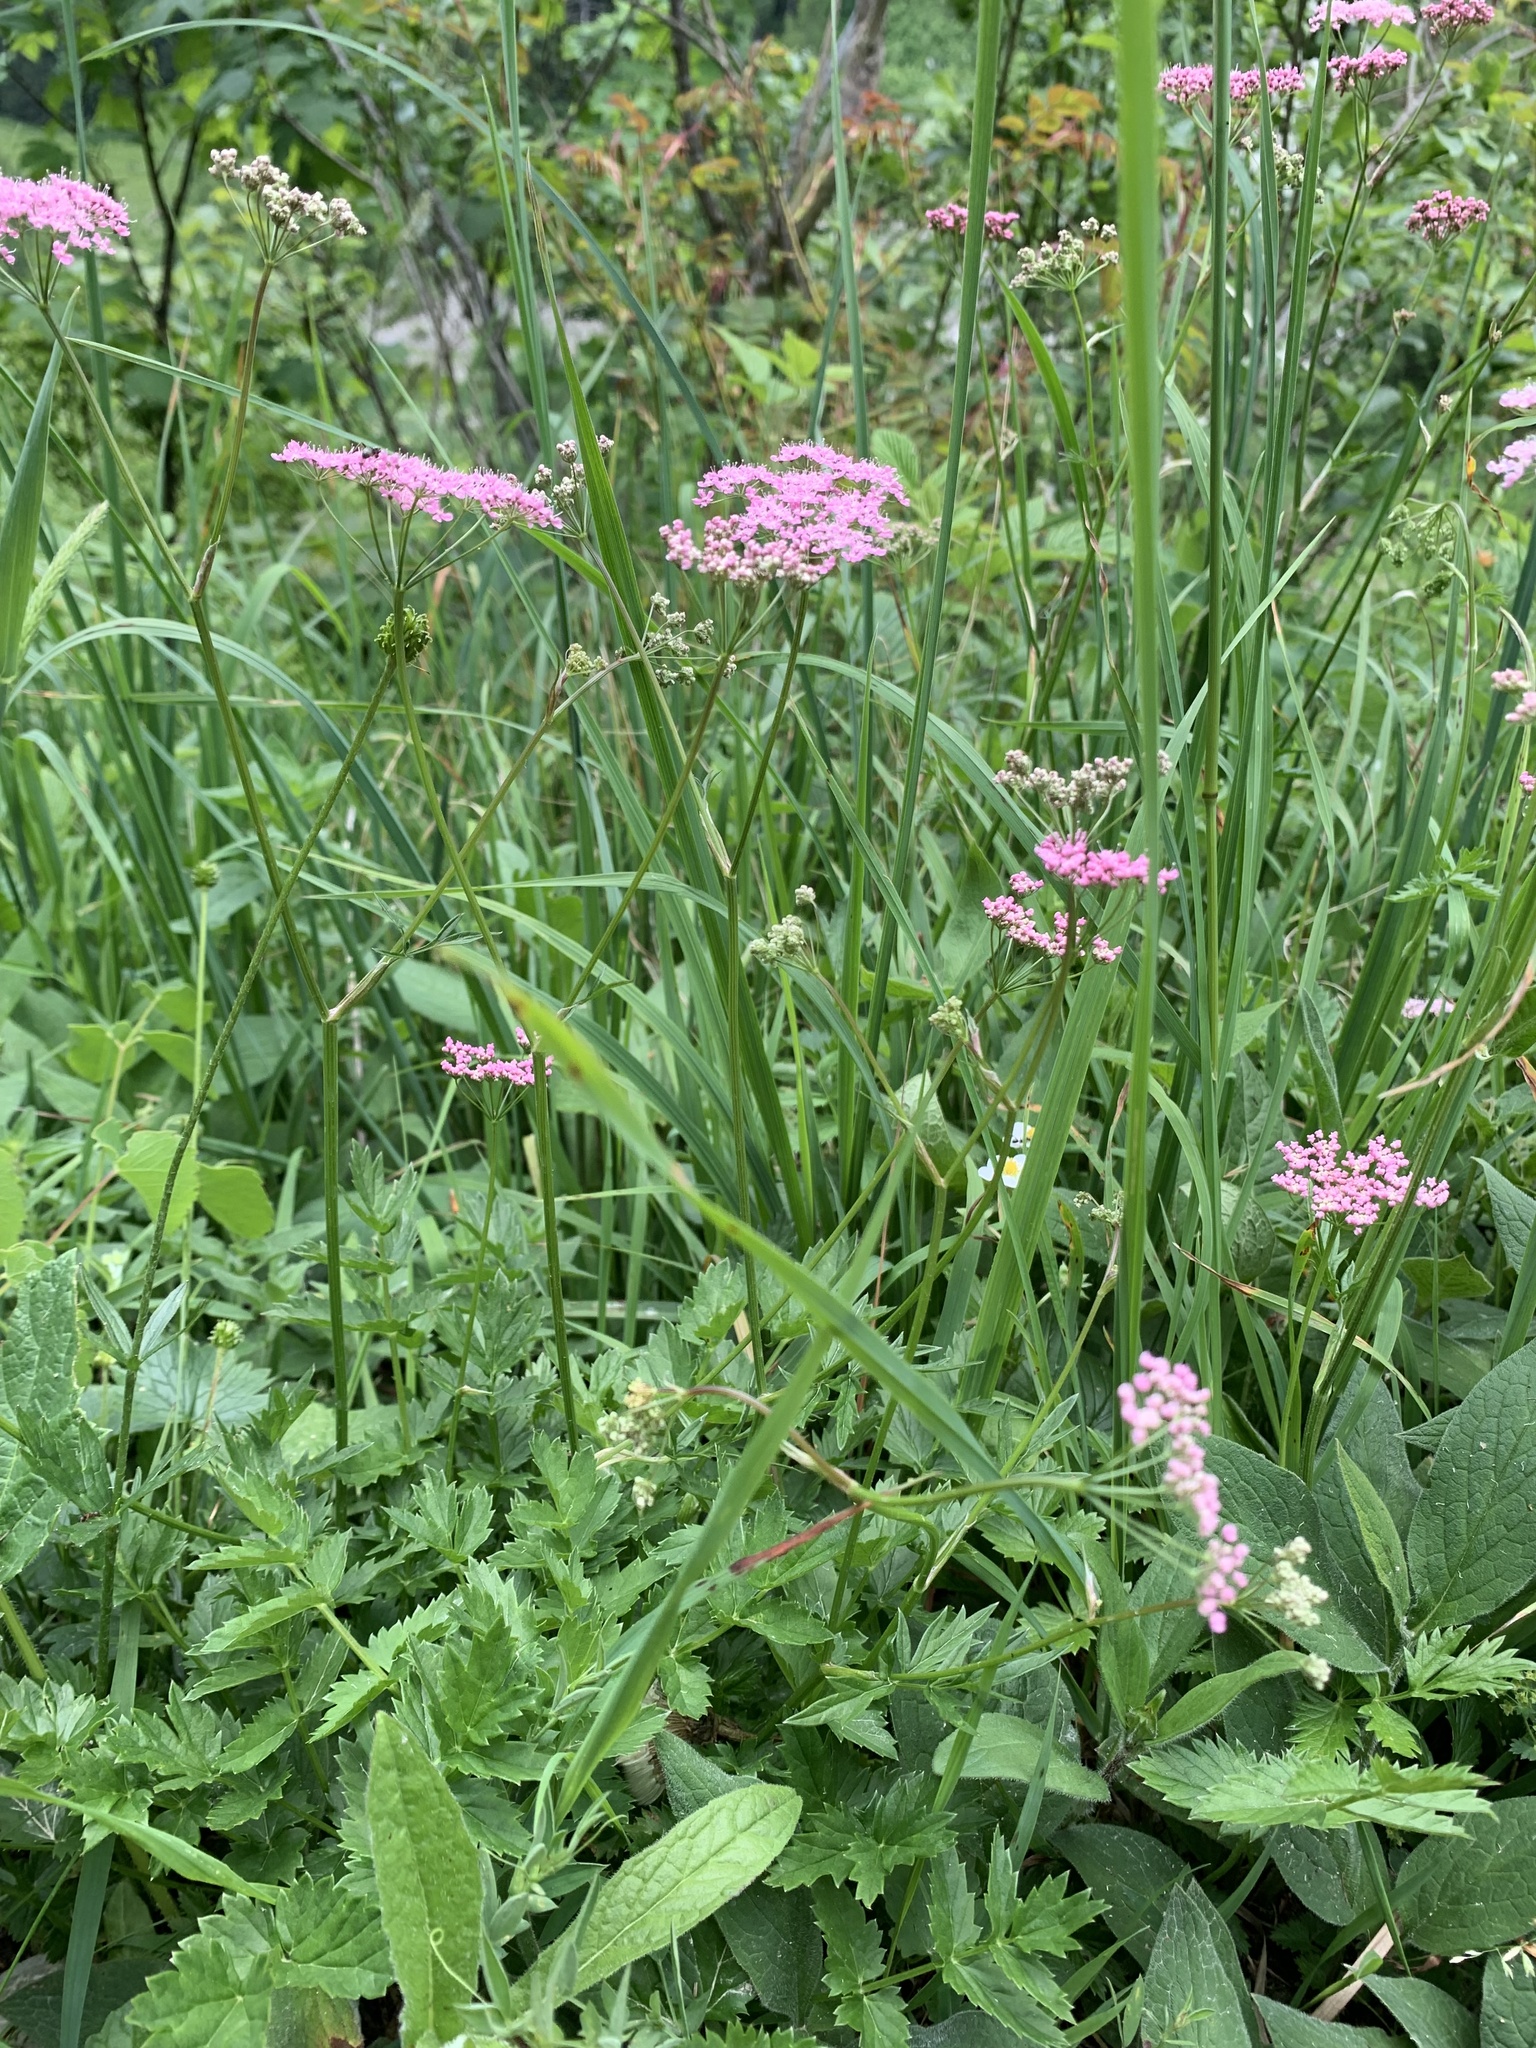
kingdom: Plantae
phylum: Tracheophyta
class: Magnoliopsida
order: Apiales
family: Apiaceae
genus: Pimpinella
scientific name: Pimpinella major
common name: Greater burnet-saxifrage
